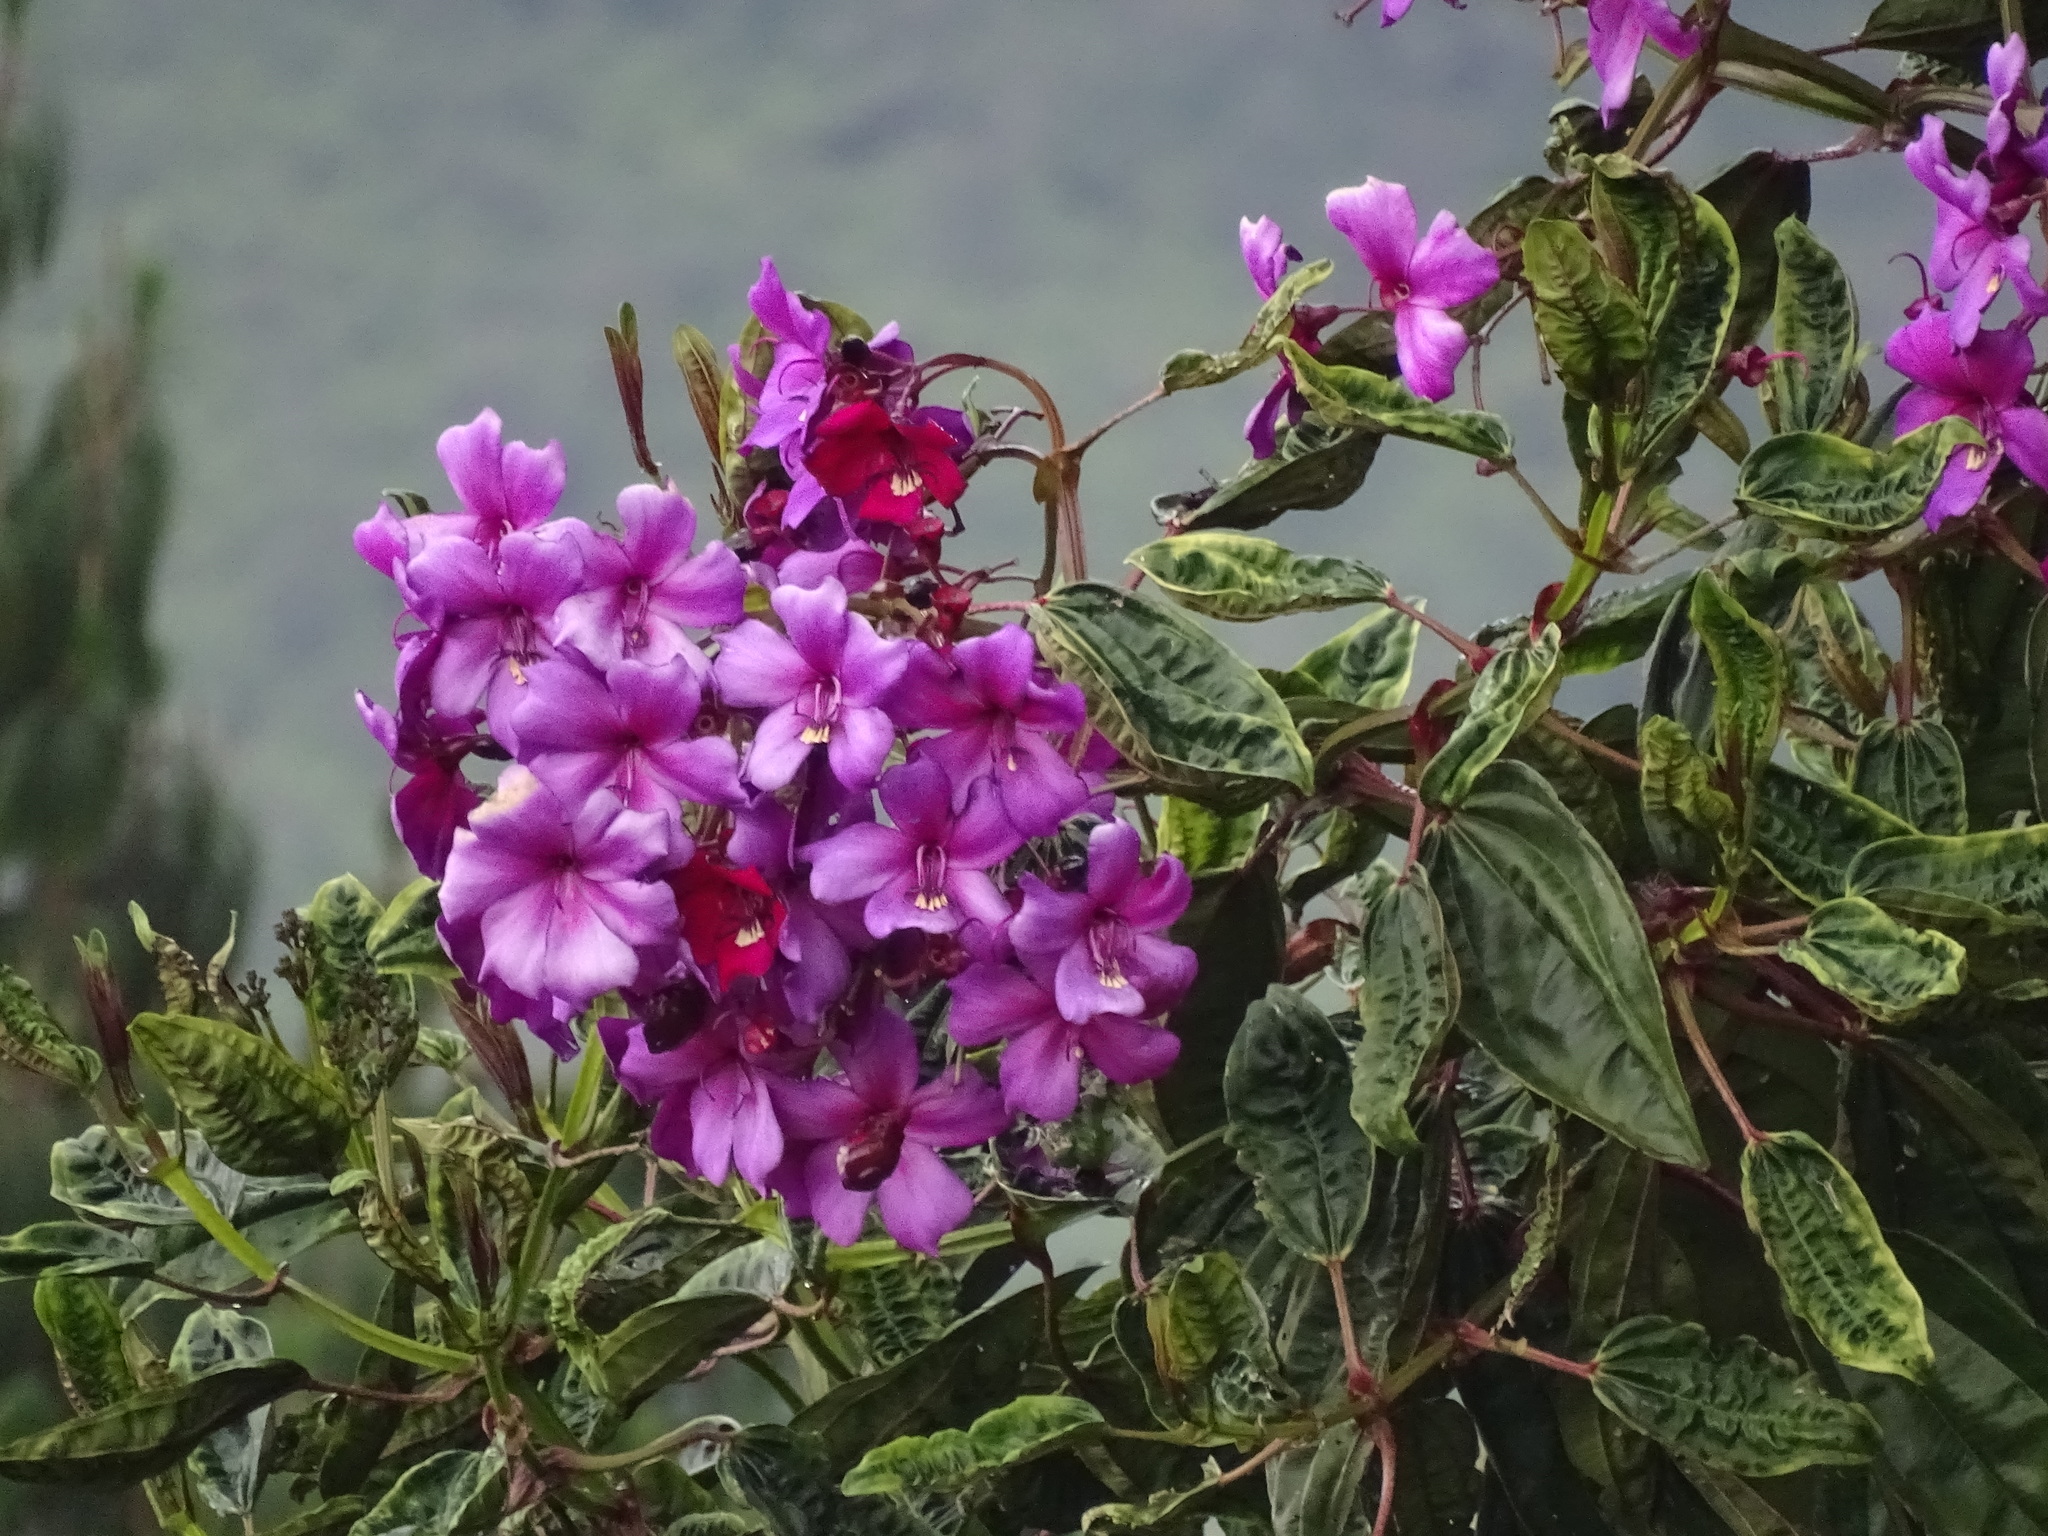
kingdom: Plantae
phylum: Tracheophyta
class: Magnoliopsida
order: Myrtales
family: Melastomataceae
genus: Meriania
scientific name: Meriania nobilis
